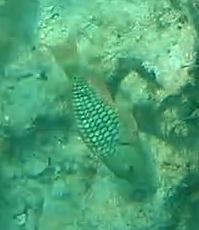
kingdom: Animalia
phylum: Chordata
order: Perciformes
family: Scaridae
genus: Sparisoma
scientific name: Sparisoma viride
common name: Stoplight parrotfish
